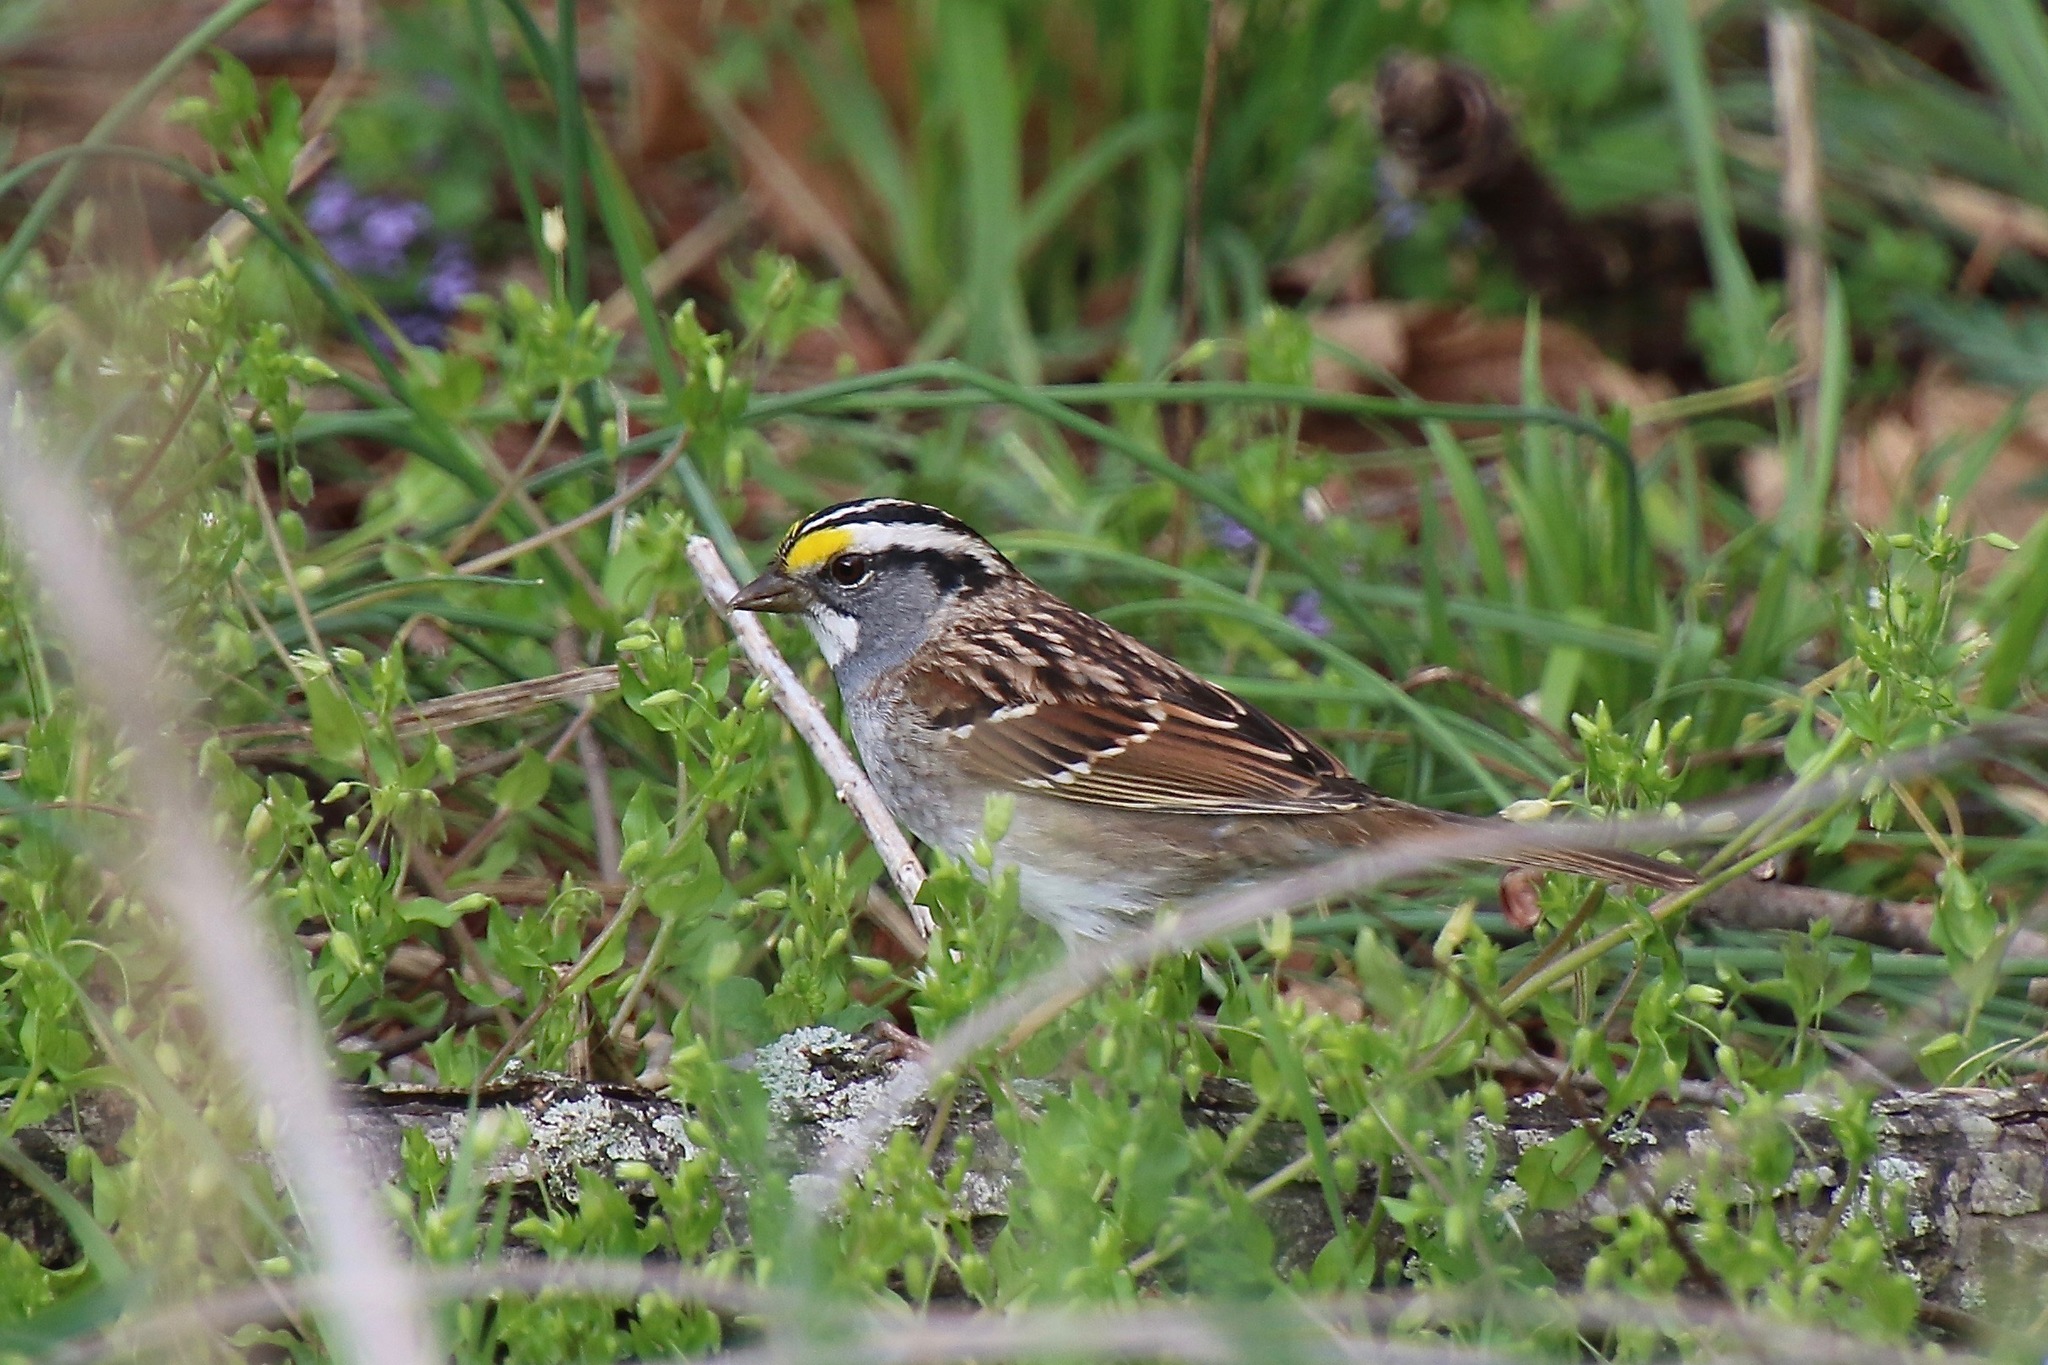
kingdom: Animalia
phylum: Chordata
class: Aves
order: Passeriformes
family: Passerellidae
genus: Zonotrichia
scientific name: Zonotrichia albicollis
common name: White-throated sparrow
